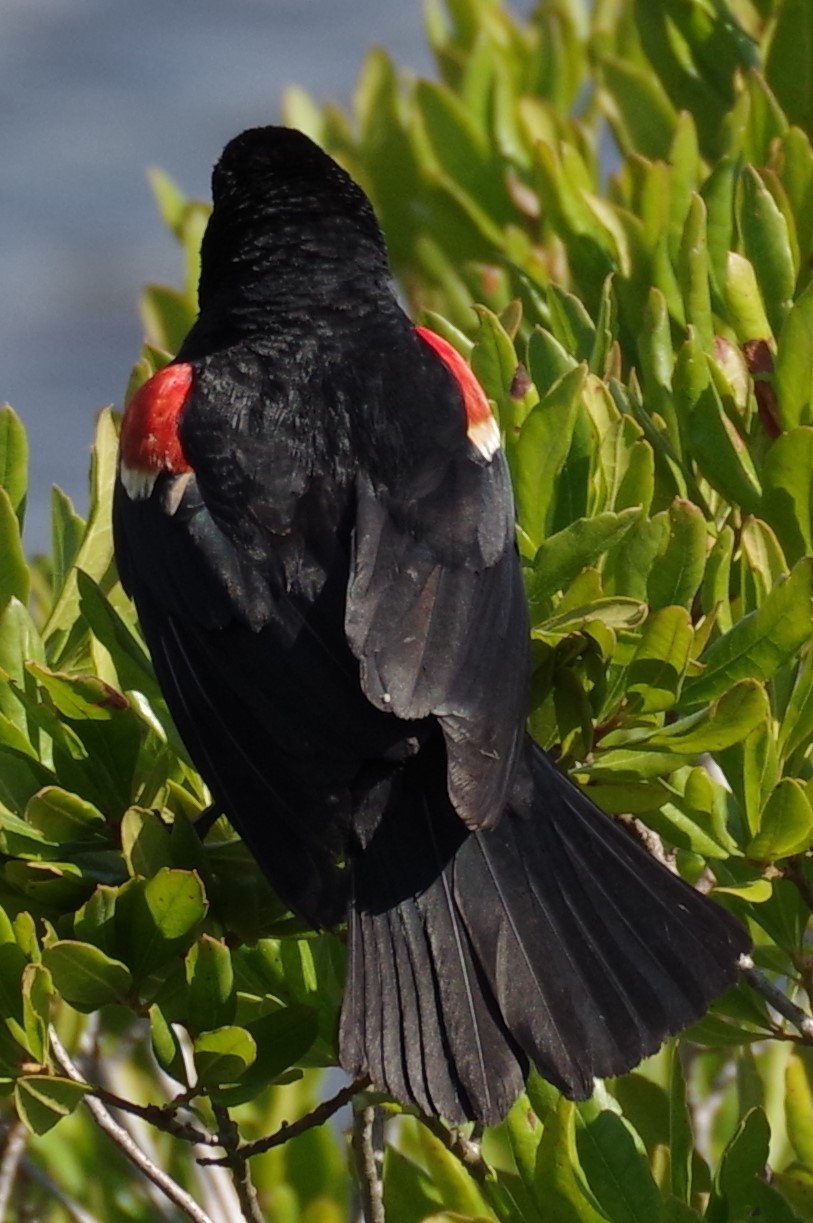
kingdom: Animalia
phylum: Chordata
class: Aves
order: Passeriformes
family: Icteridae
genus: Agelaius
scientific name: Agelaius phoeniceus
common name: Red-winged blackbird
